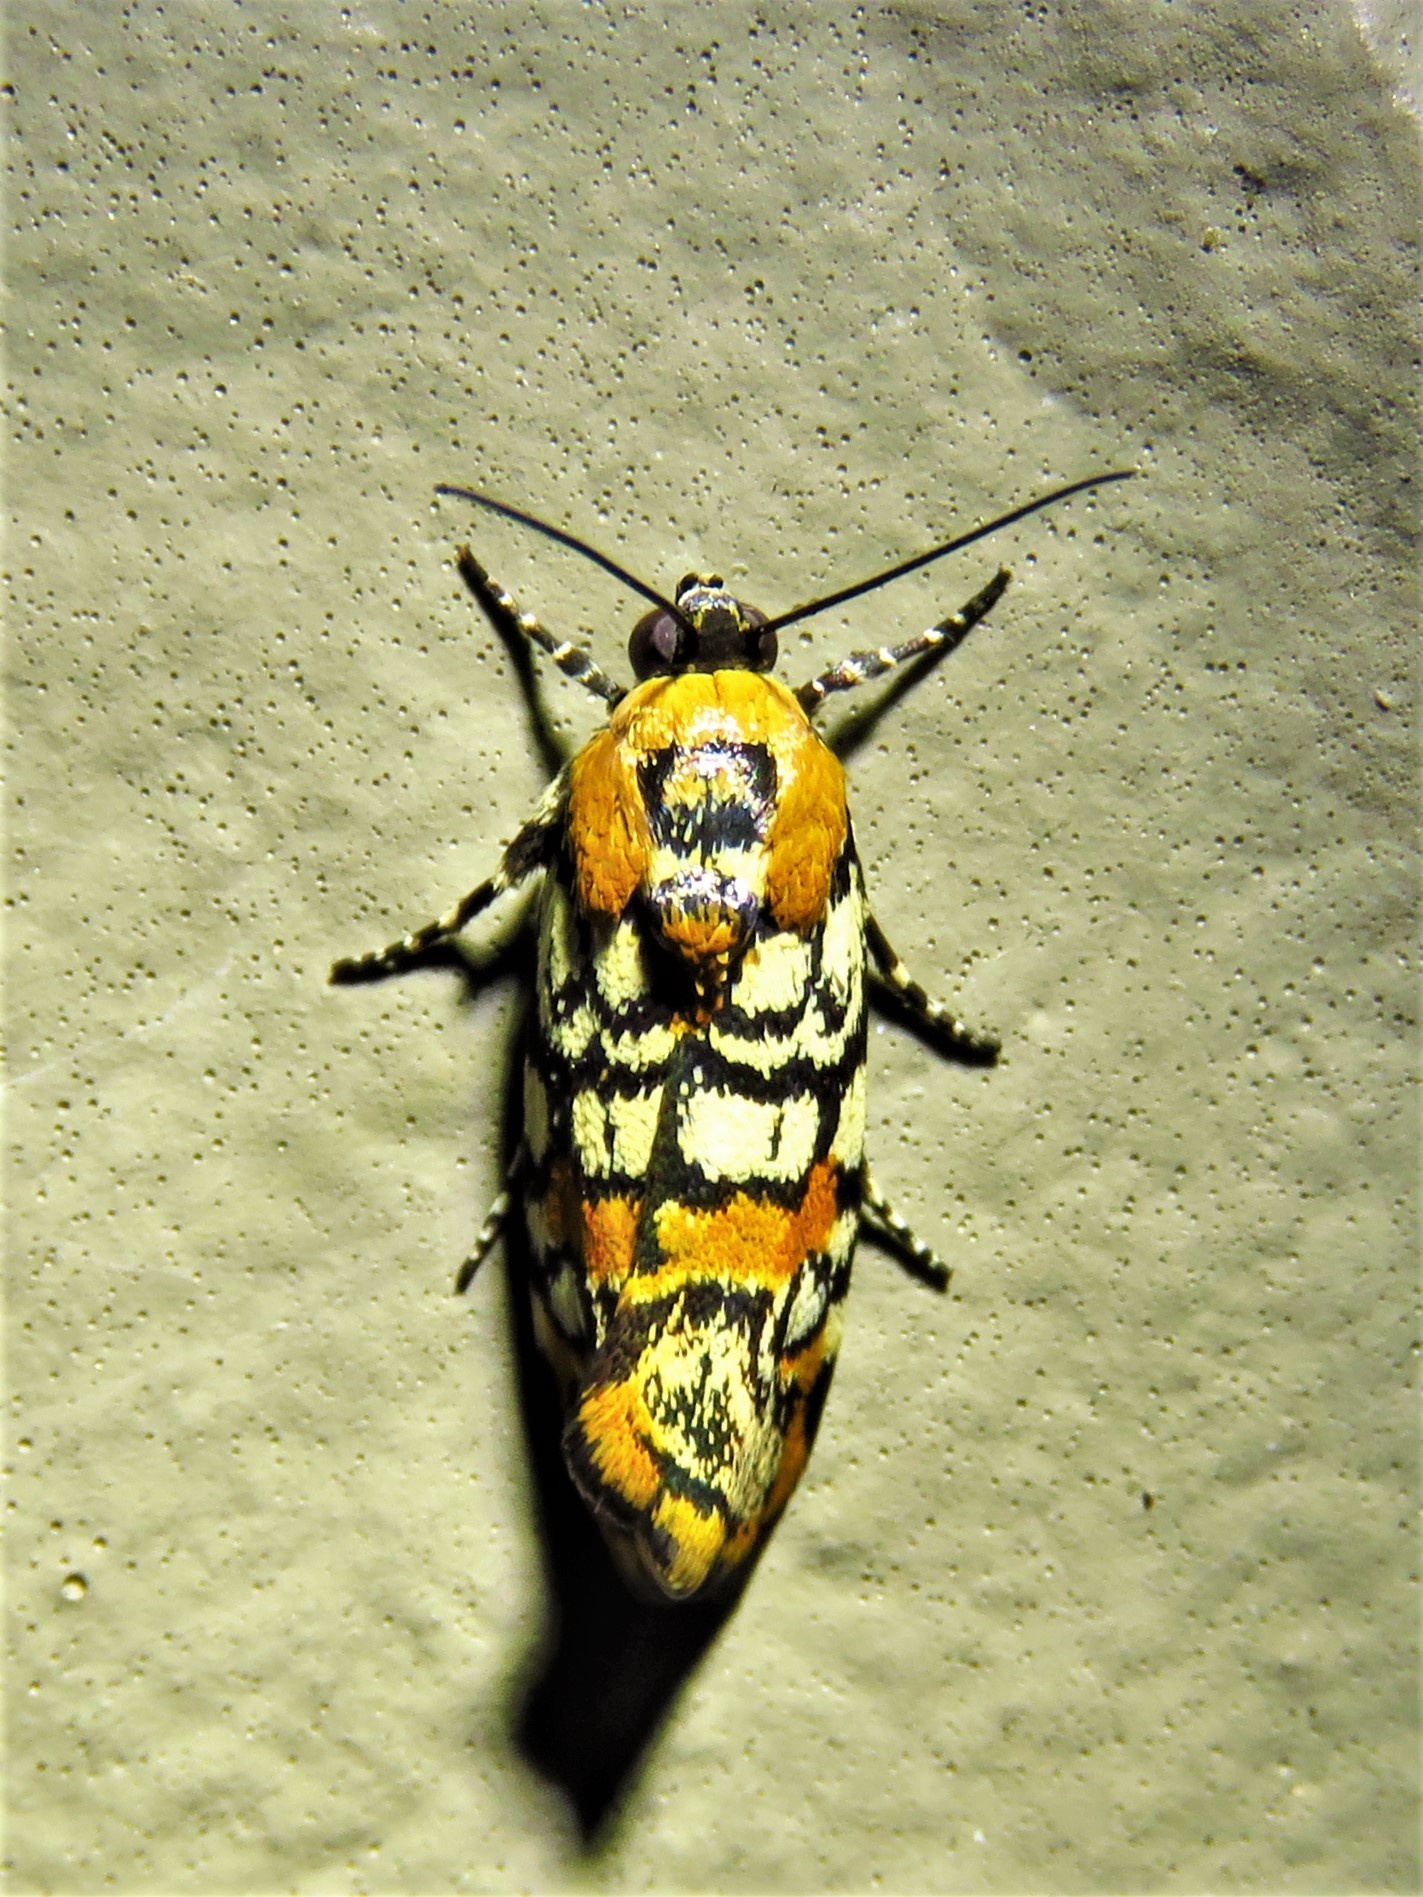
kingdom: Animalia
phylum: Arthropoda
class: Insecta
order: Lepidoptera
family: Noctuidae
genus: Spragueia
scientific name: Spragueia guttata
